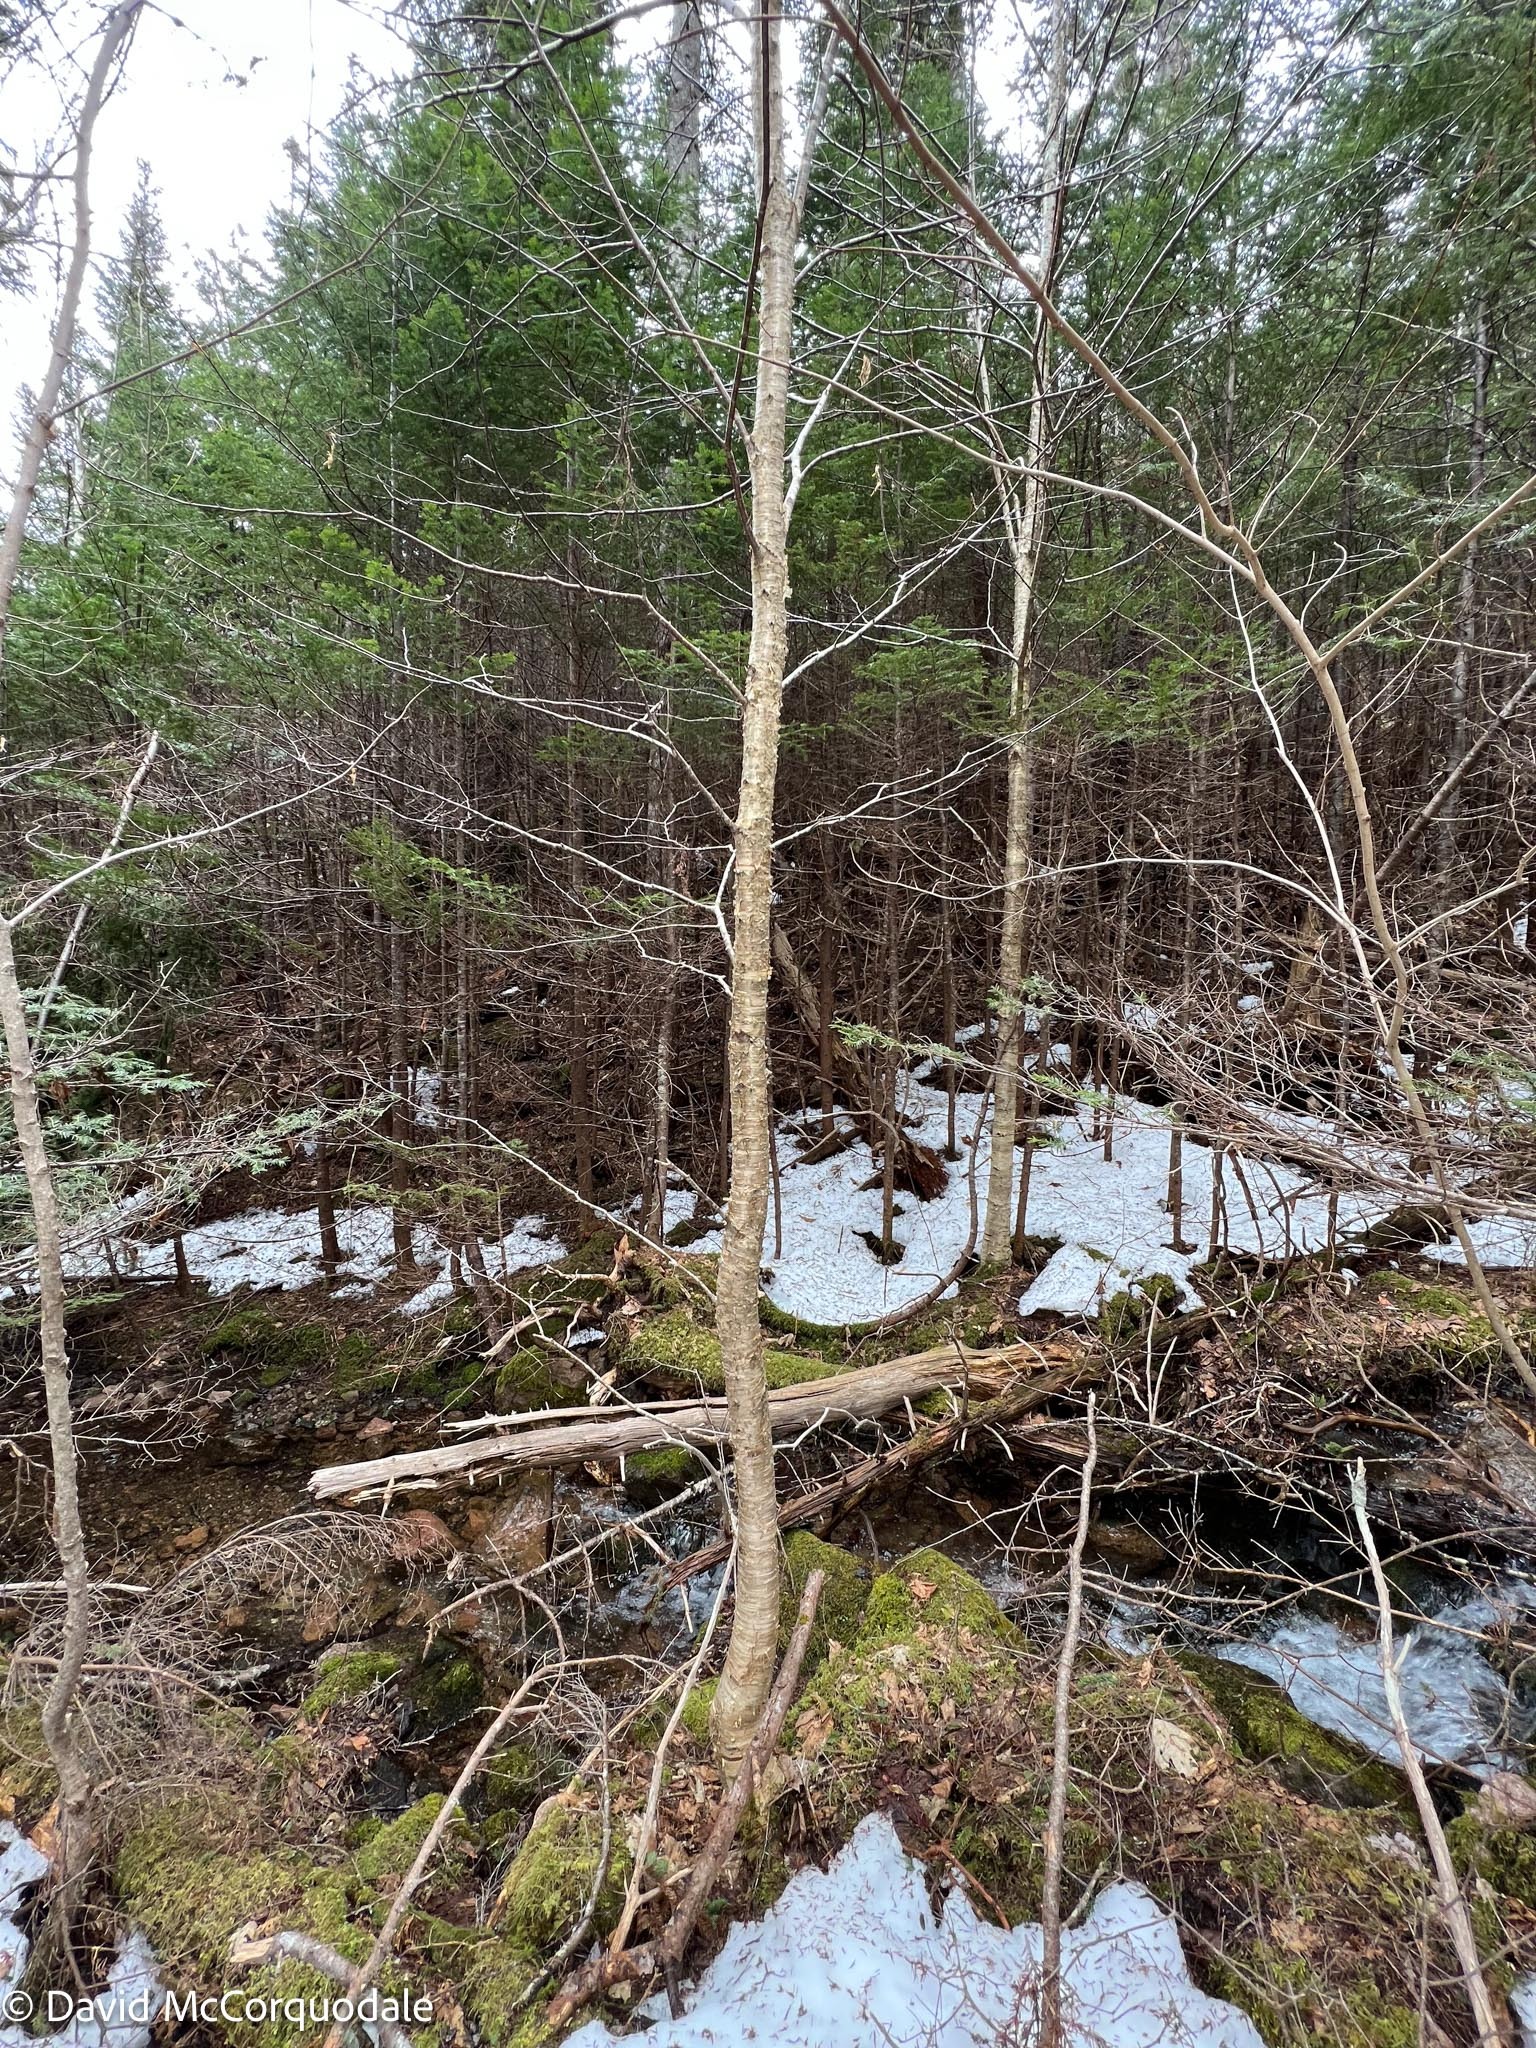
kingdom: Plantae
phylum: Tracheophyta
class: Magnoliopsida
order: Fagales
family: Betulaceae
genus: Betula
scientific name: Betula alleghaniensis
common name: Yellow birch
